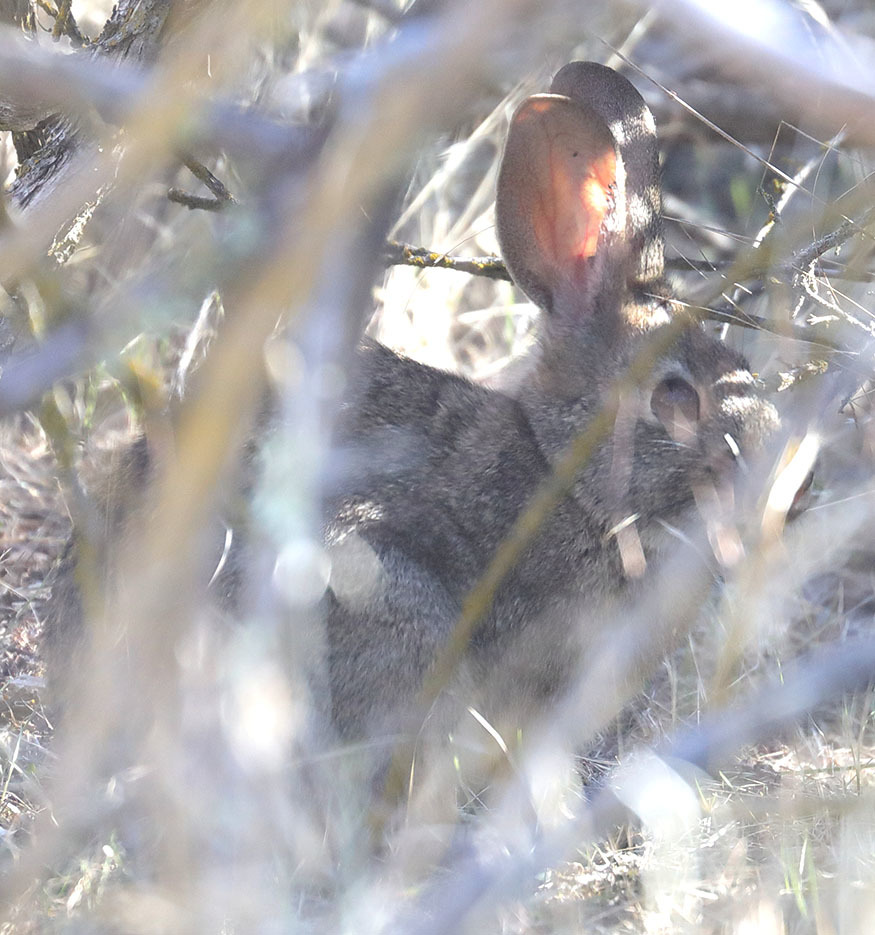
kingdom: Animalia
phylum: Chordata
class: Mammalia
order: Lagomorpha
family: Leporidae
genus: Sylvilagus
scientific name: Sylvilagus bachmani
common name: Brush rabbit
